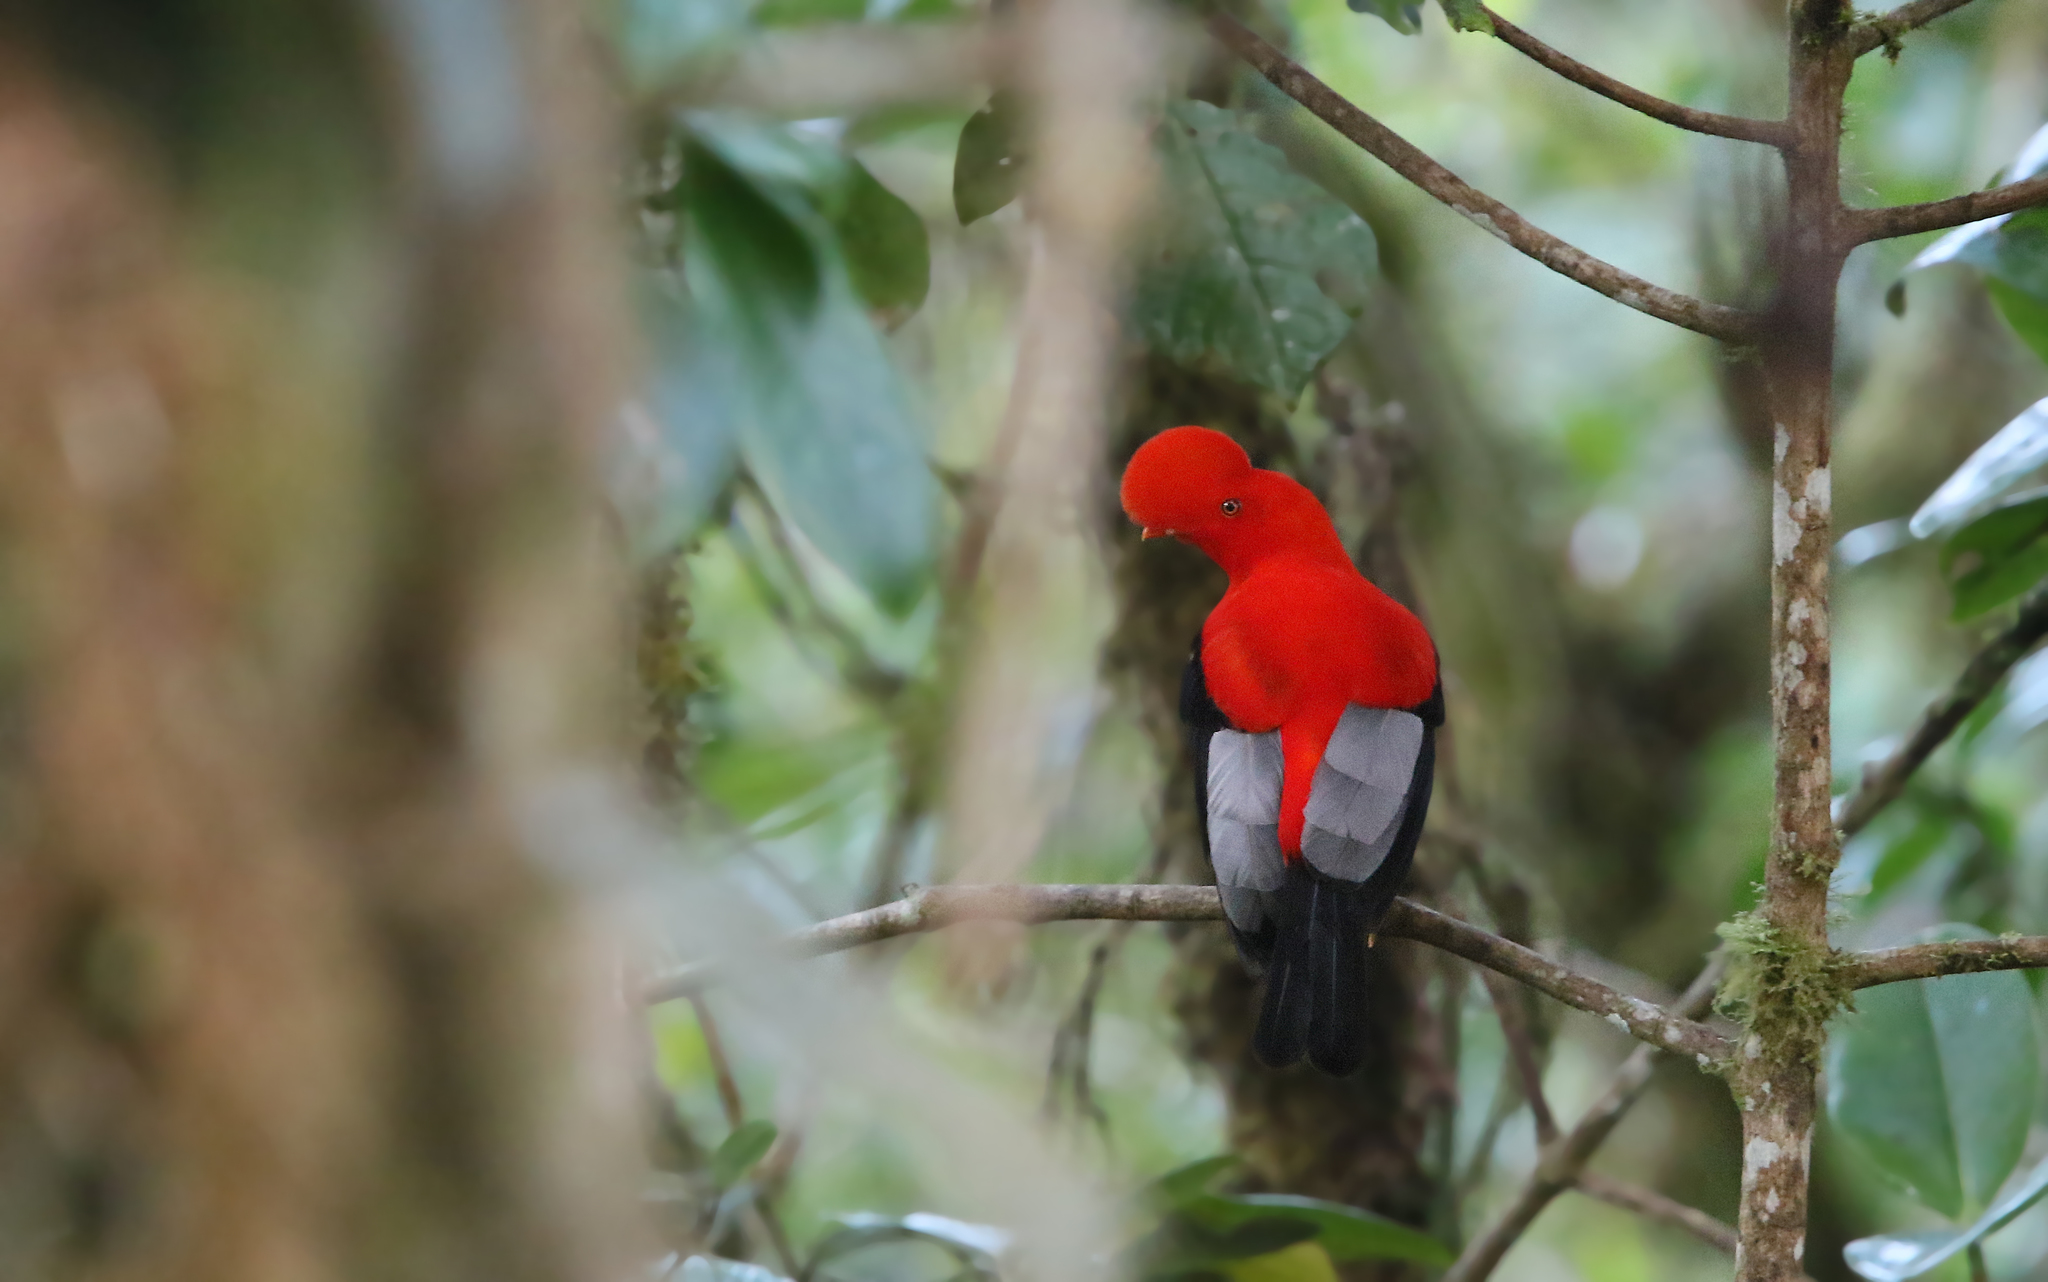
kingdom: Animalia
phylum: Chordata
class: Aves
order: Passeriformes
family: Cotingidae
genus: Rupicola
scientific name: Rupicola peruvianus
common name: Andean cock-of-the-rock
